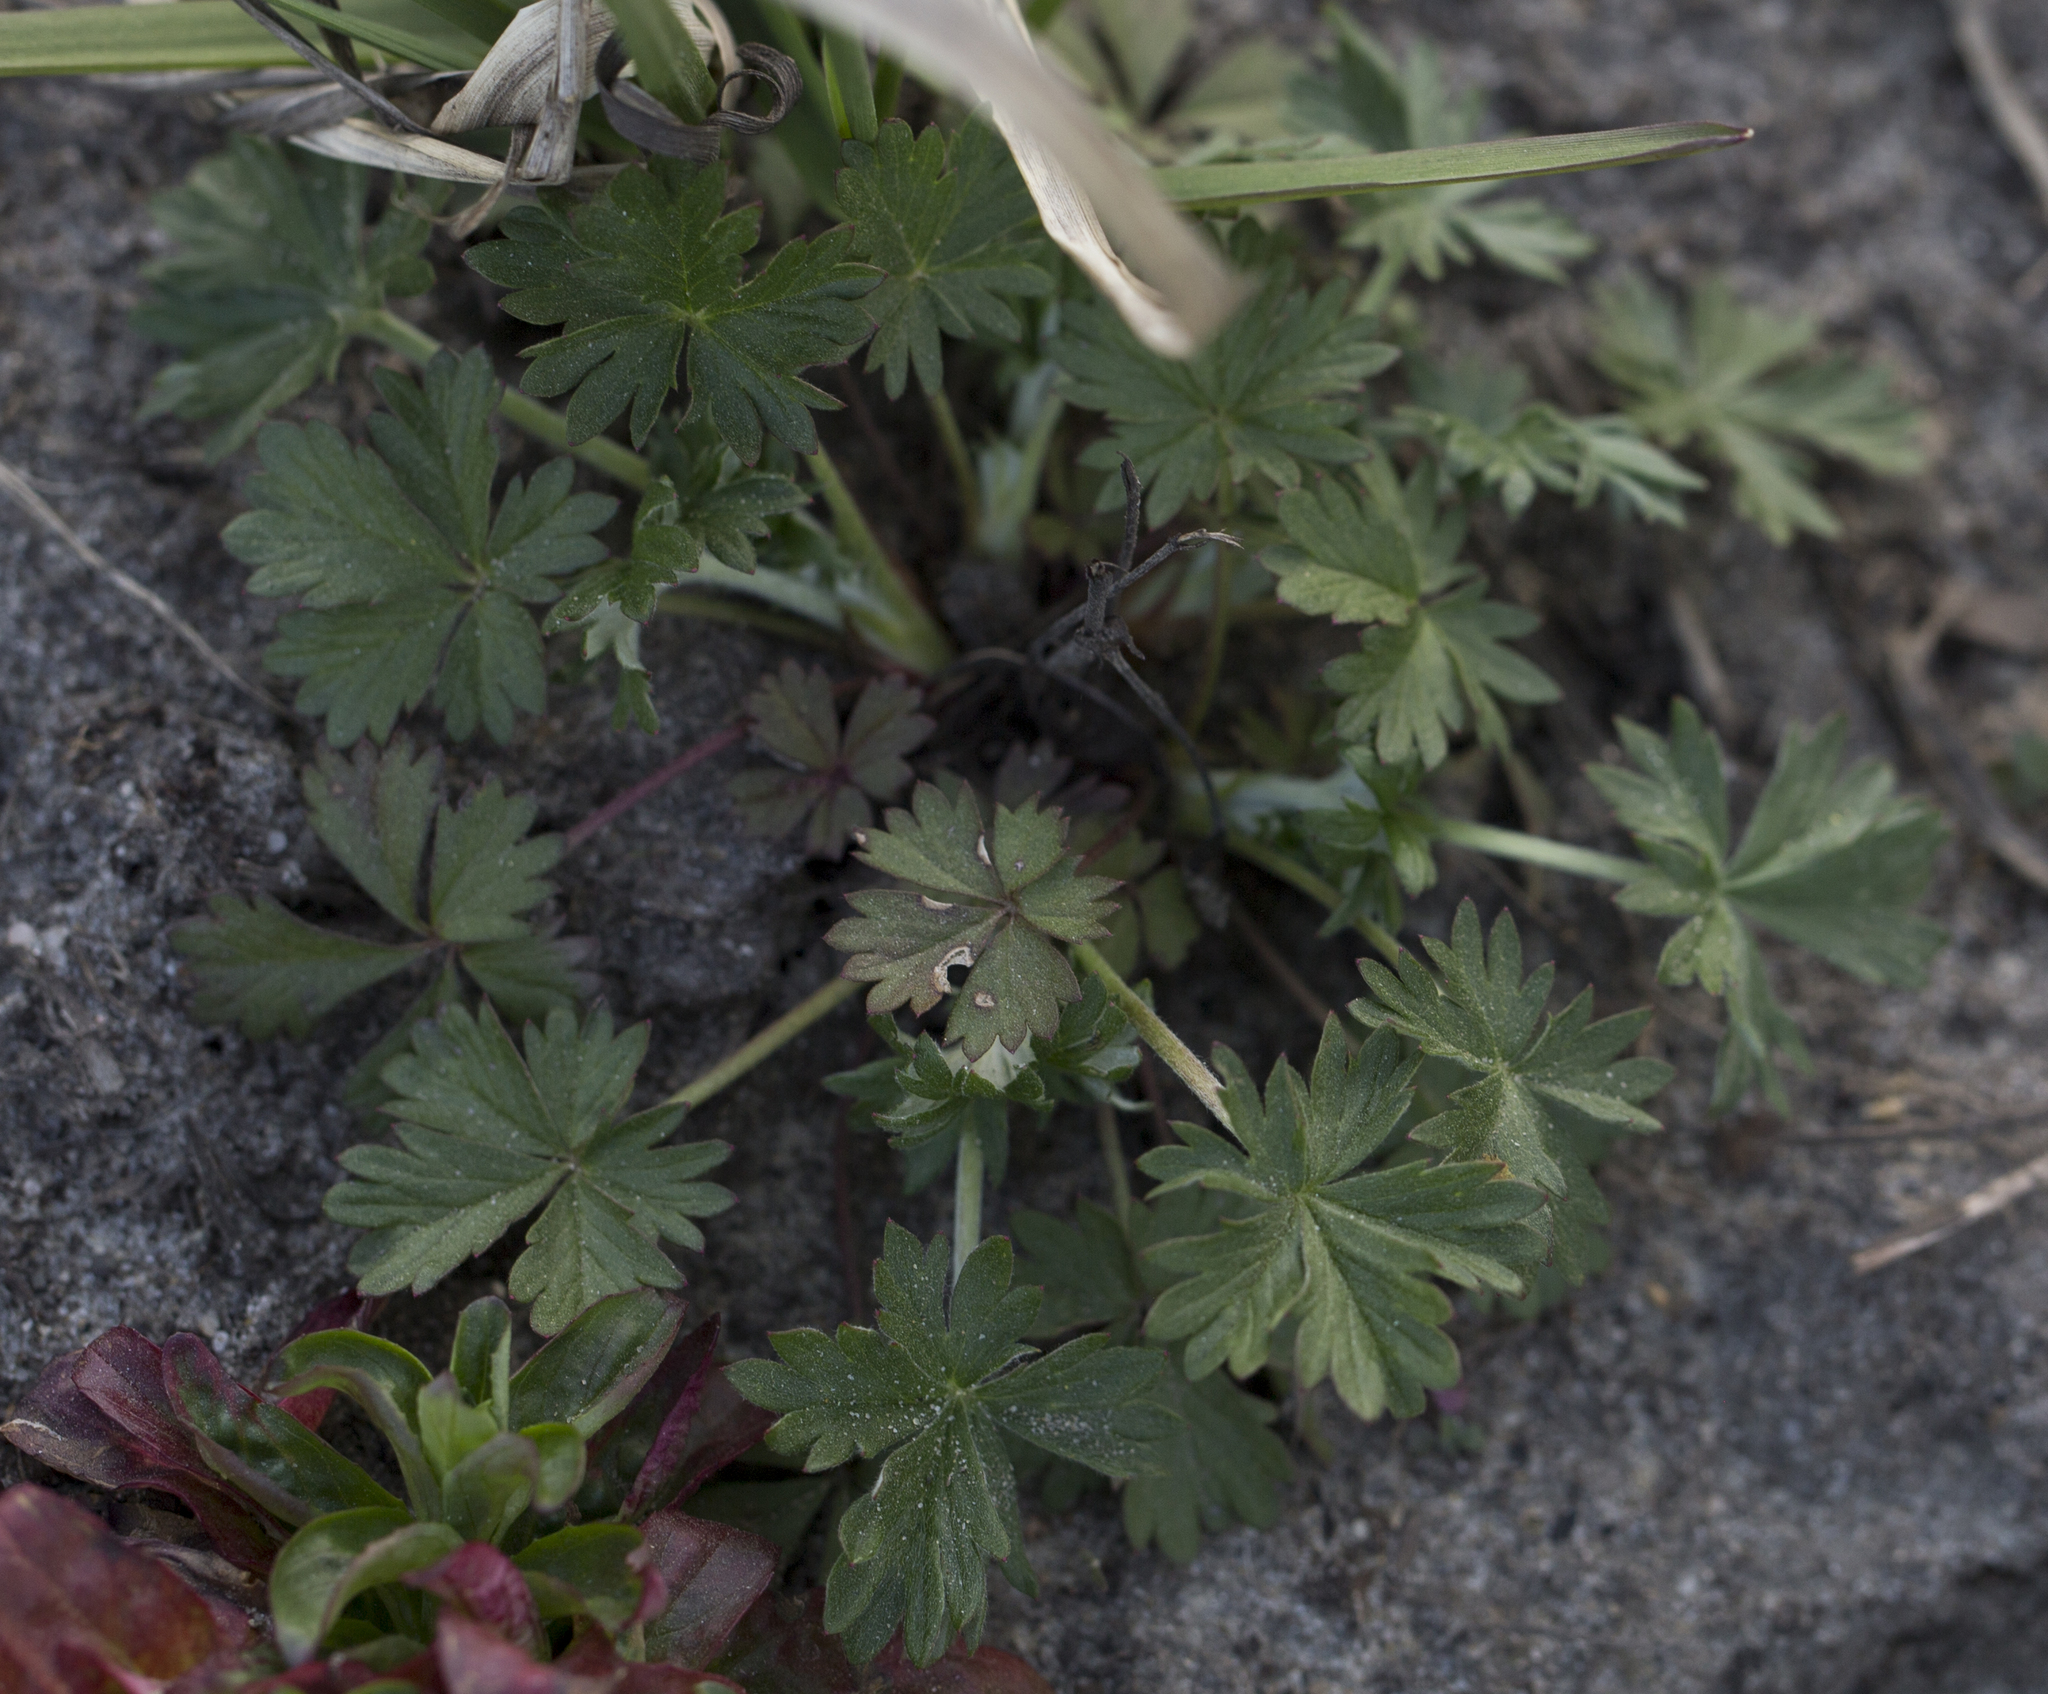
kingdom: Plantae
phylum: Tracheophyta
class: Magnoliopsida
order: Rosales
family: Rosaceae
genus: Potentilla
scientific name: Potentilla argentea
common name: Hoary cinquefoil
